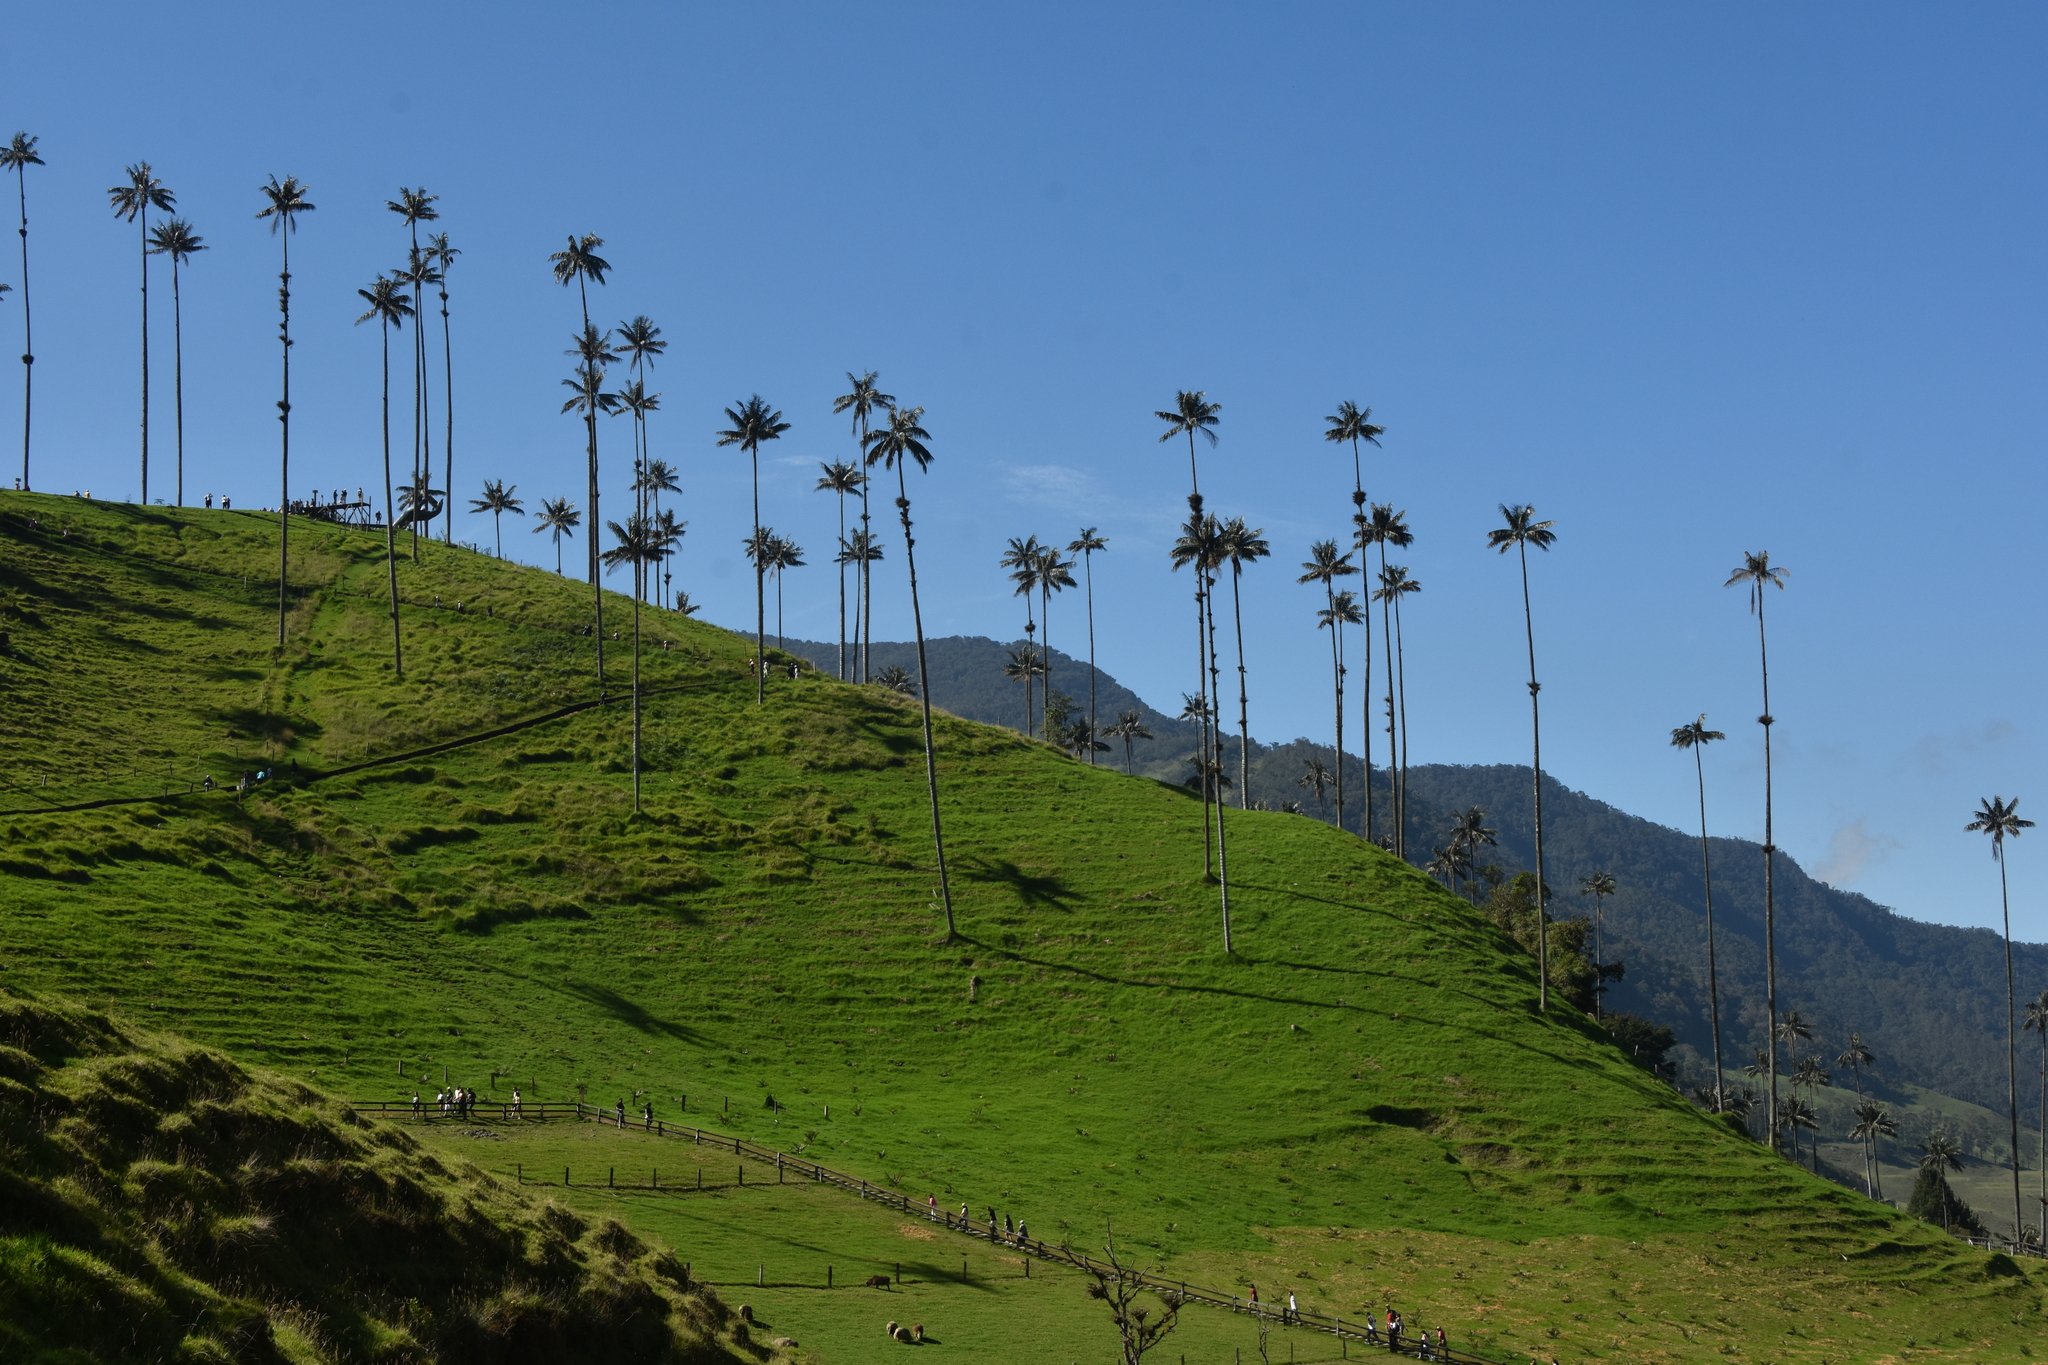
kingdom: Plantae
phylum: Tracheophyta
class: Liliopsida
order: Arecales
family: Arecaceae
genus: Ceroxylon
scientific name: Ceroxylon quindiuense
